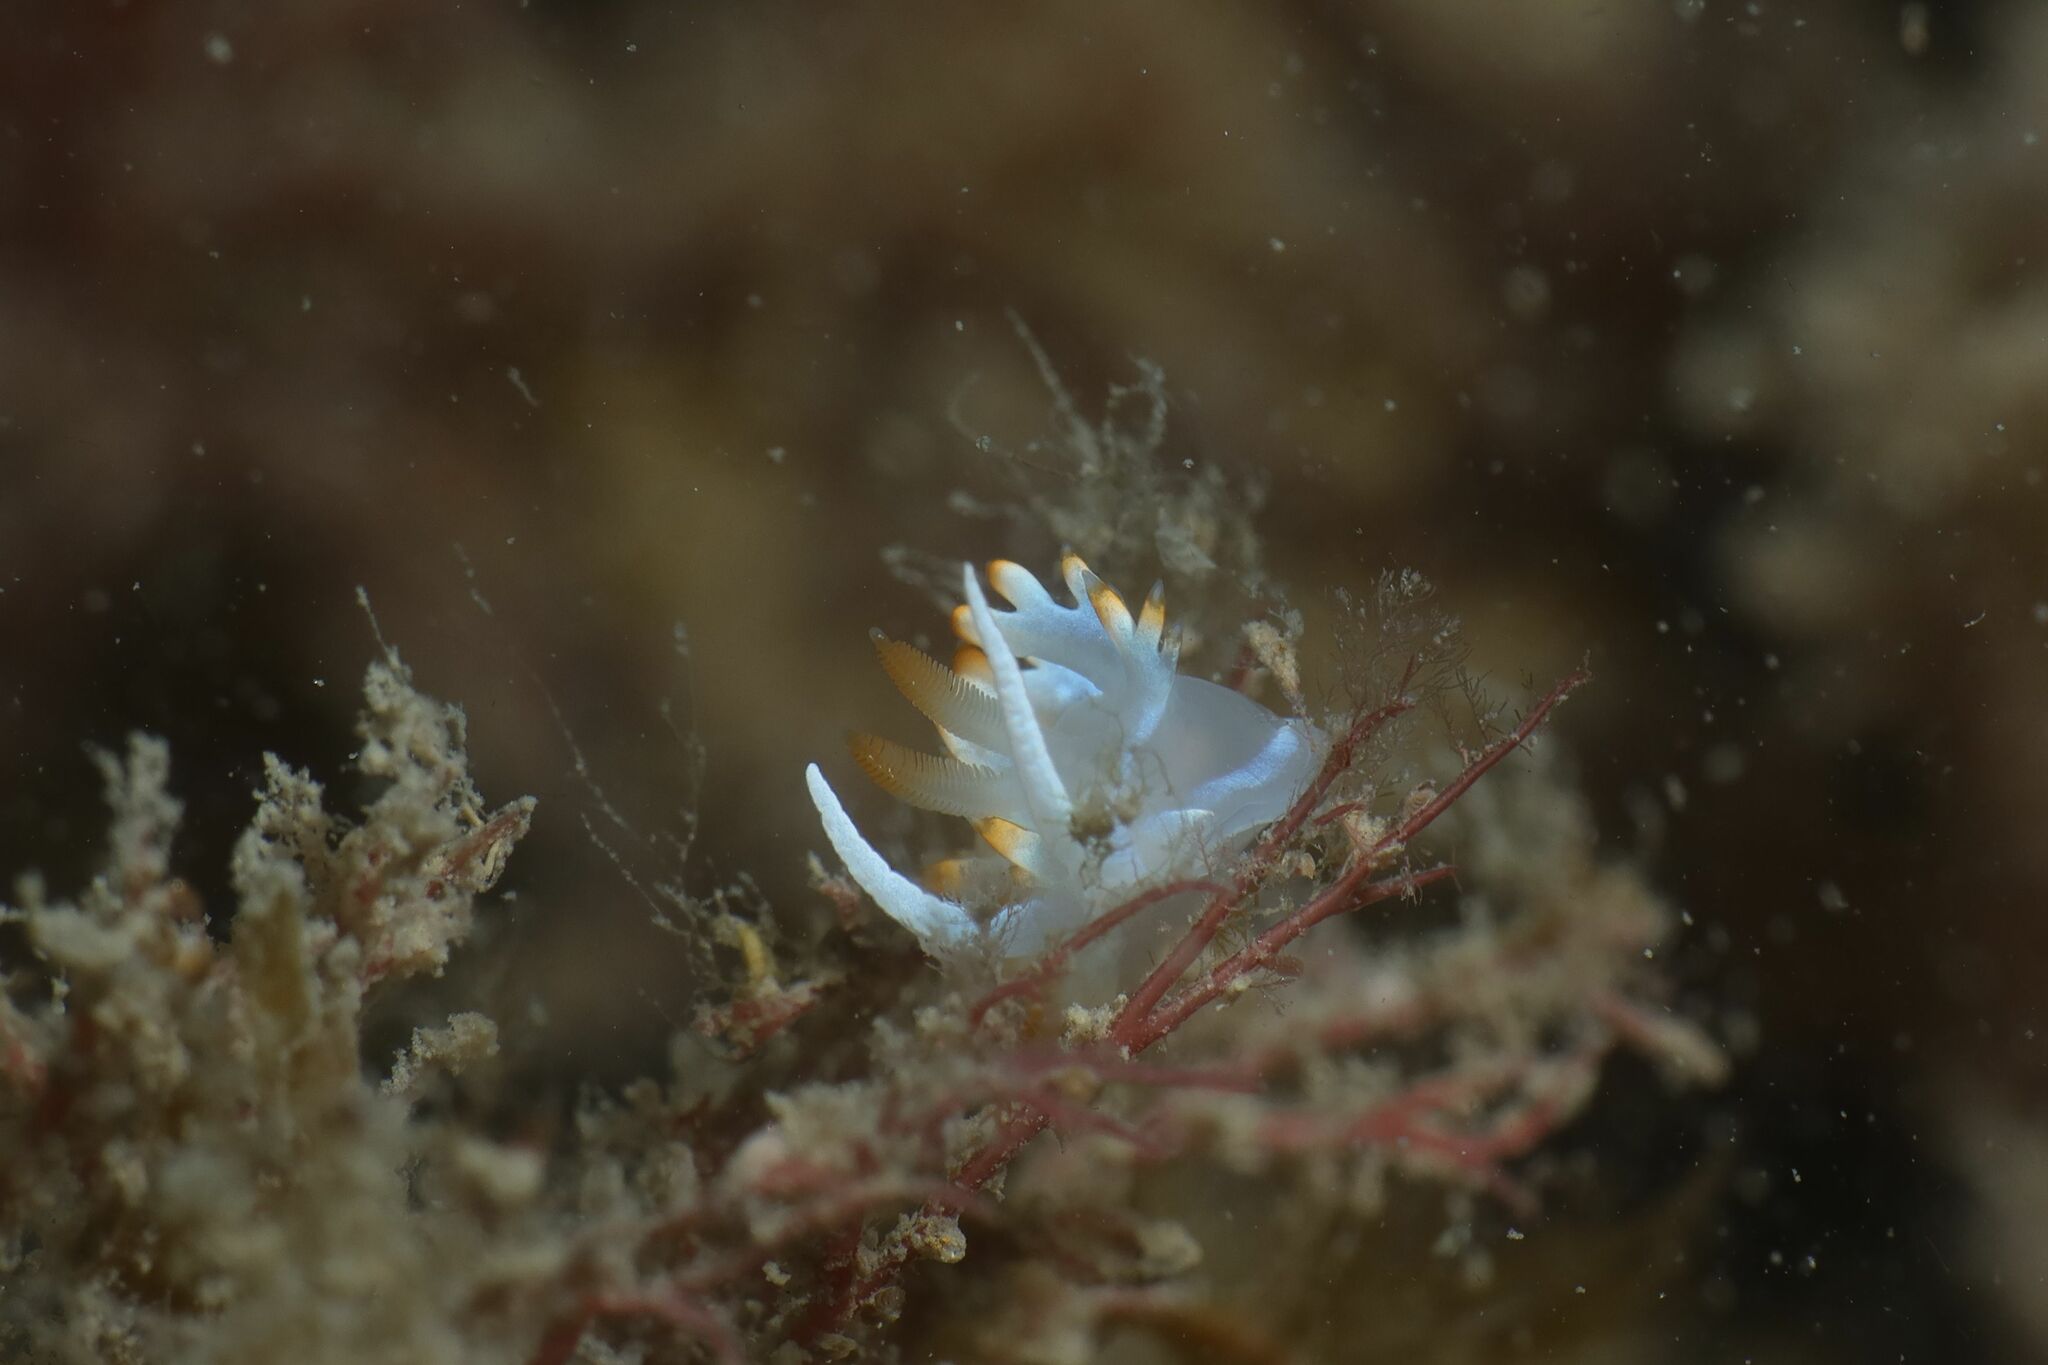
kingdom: Animalia
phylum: Mollusca
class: Gastropoda
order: Nudibranchia
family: Samlidae
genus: Luisella
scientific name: Luisella babai
